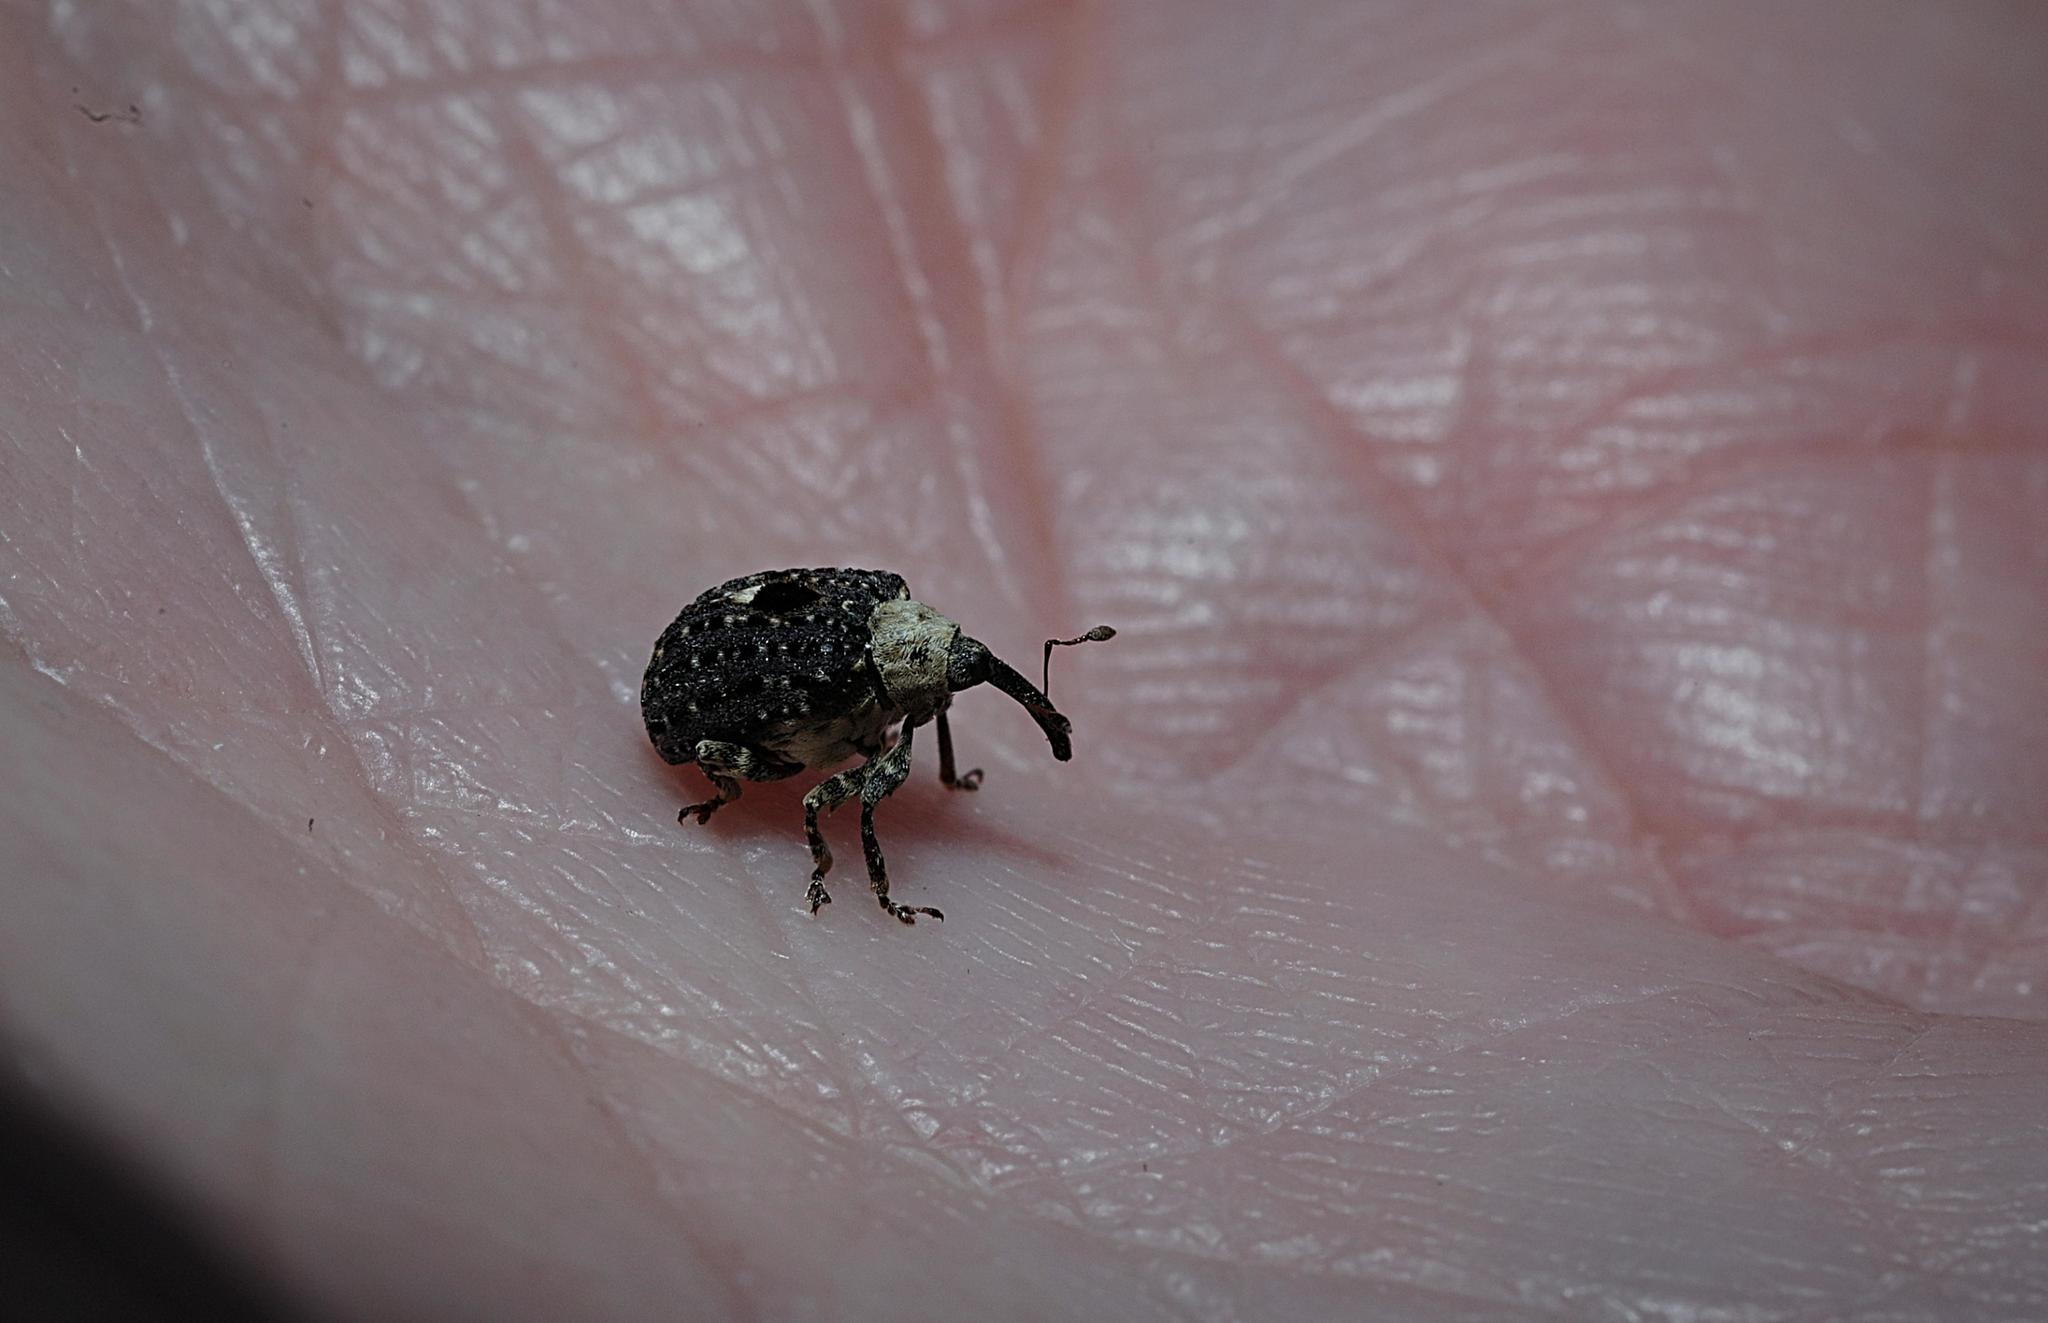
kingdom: Animalia
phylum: Arthropoda
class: Insecta
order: Coleoptera
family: Curculionidae
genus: Cionus
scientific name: Cionus scrophulariae
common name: Common figwort weevil
